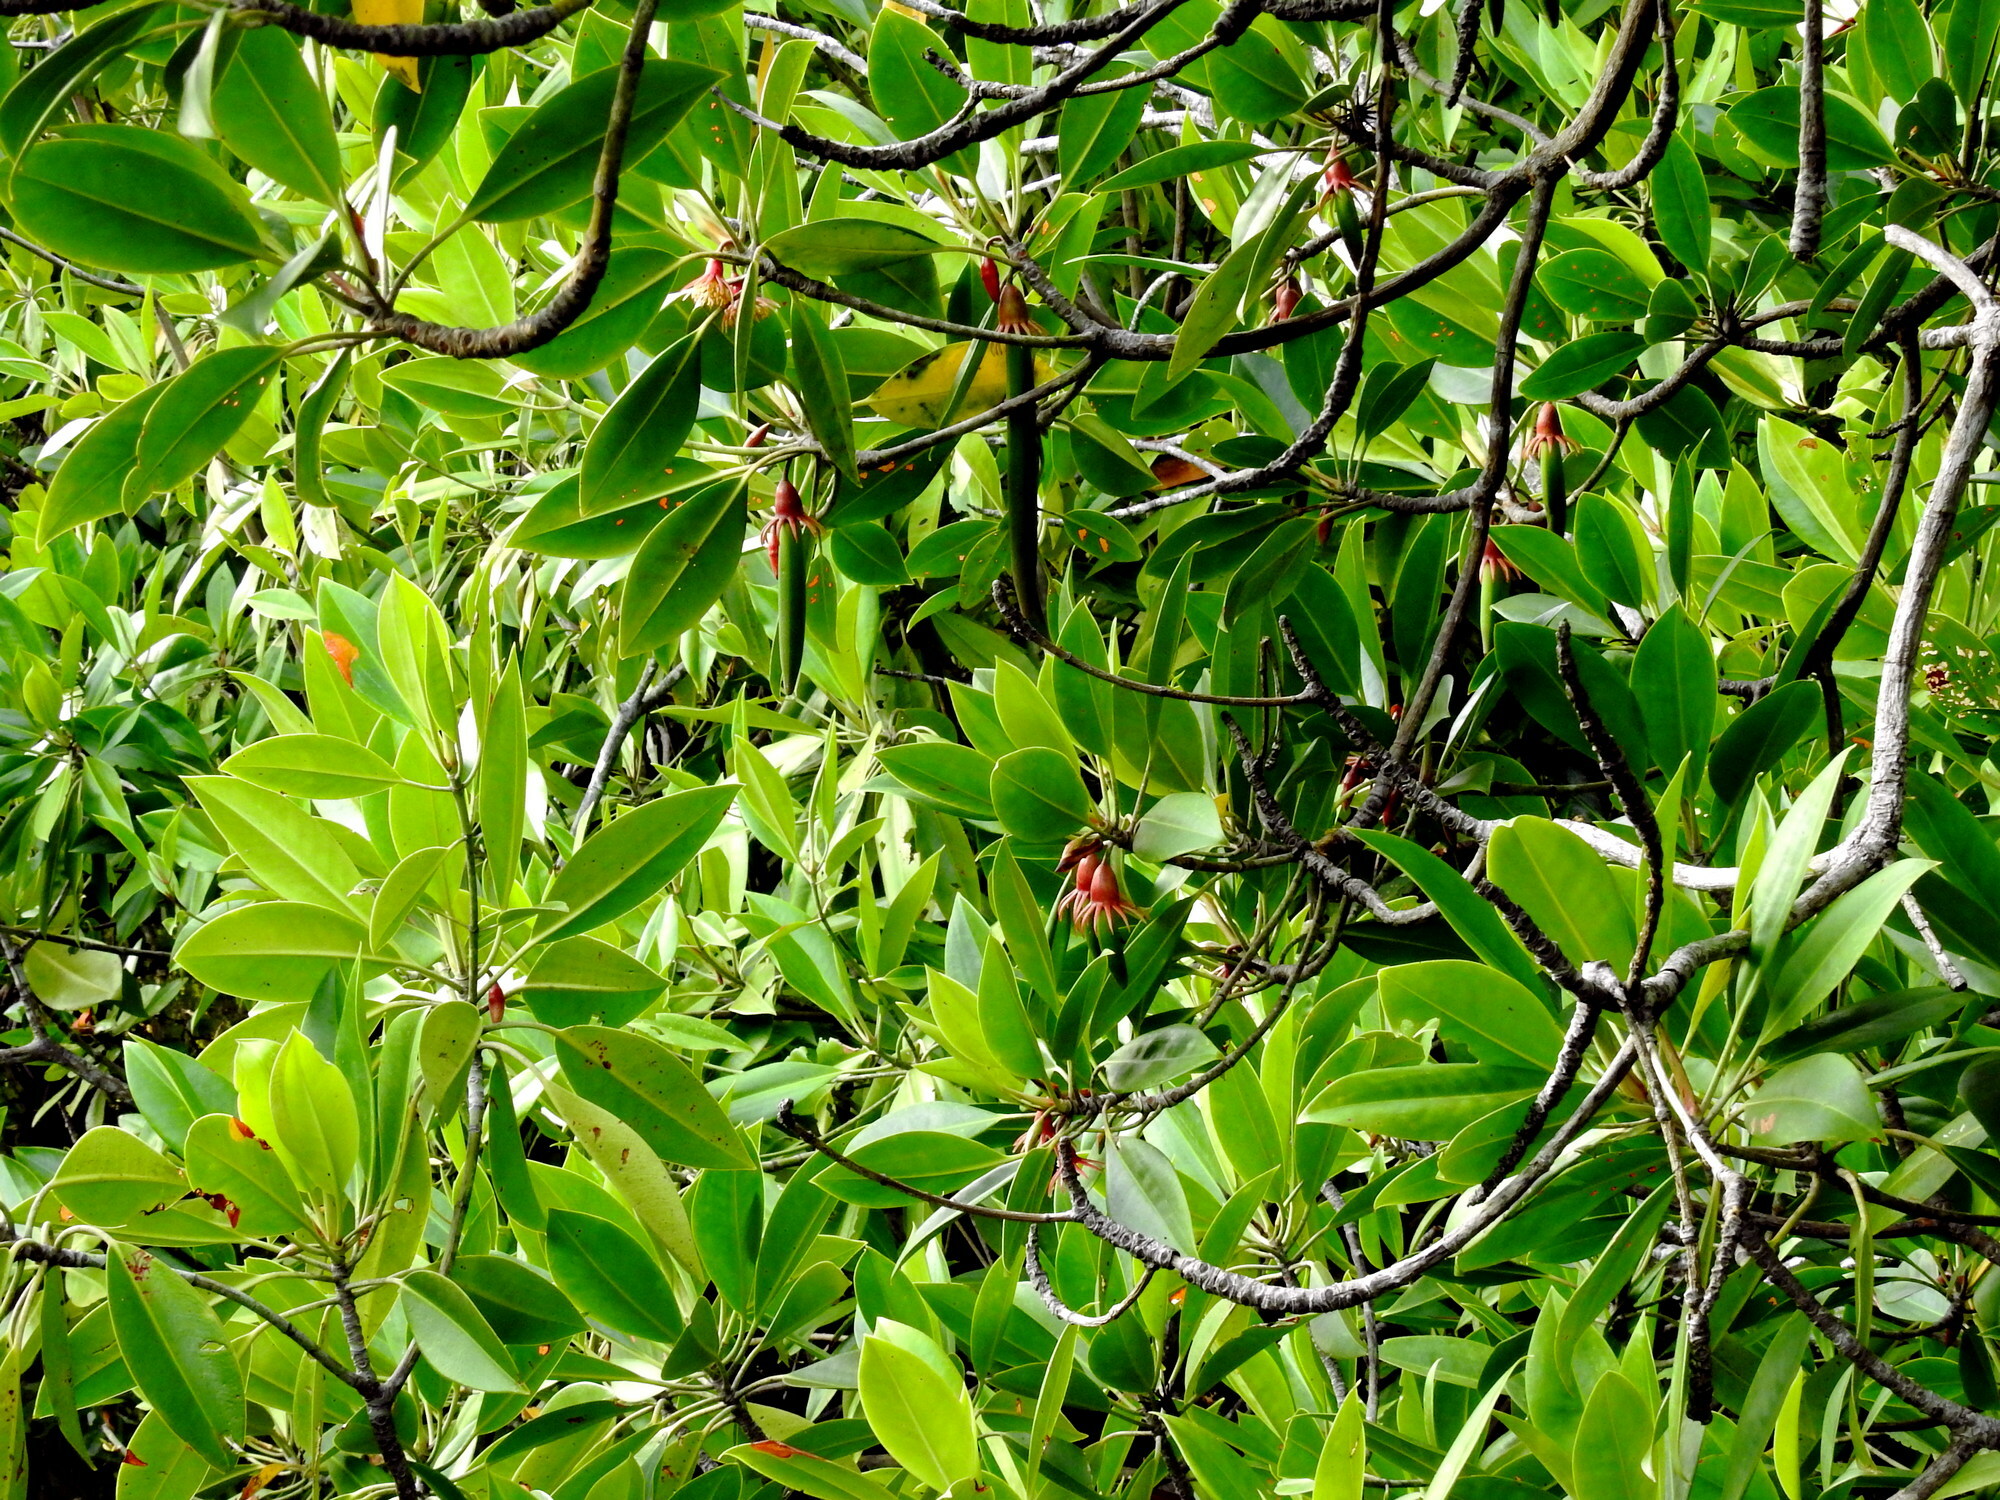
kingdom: Plantae
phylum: Tracheophyta
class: Magnoliopsida
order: Malpighiales
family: Rhizophoraceae
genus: Bruguiera
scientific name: Bruguiera gymnorhiza
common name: Oriental mangrove
